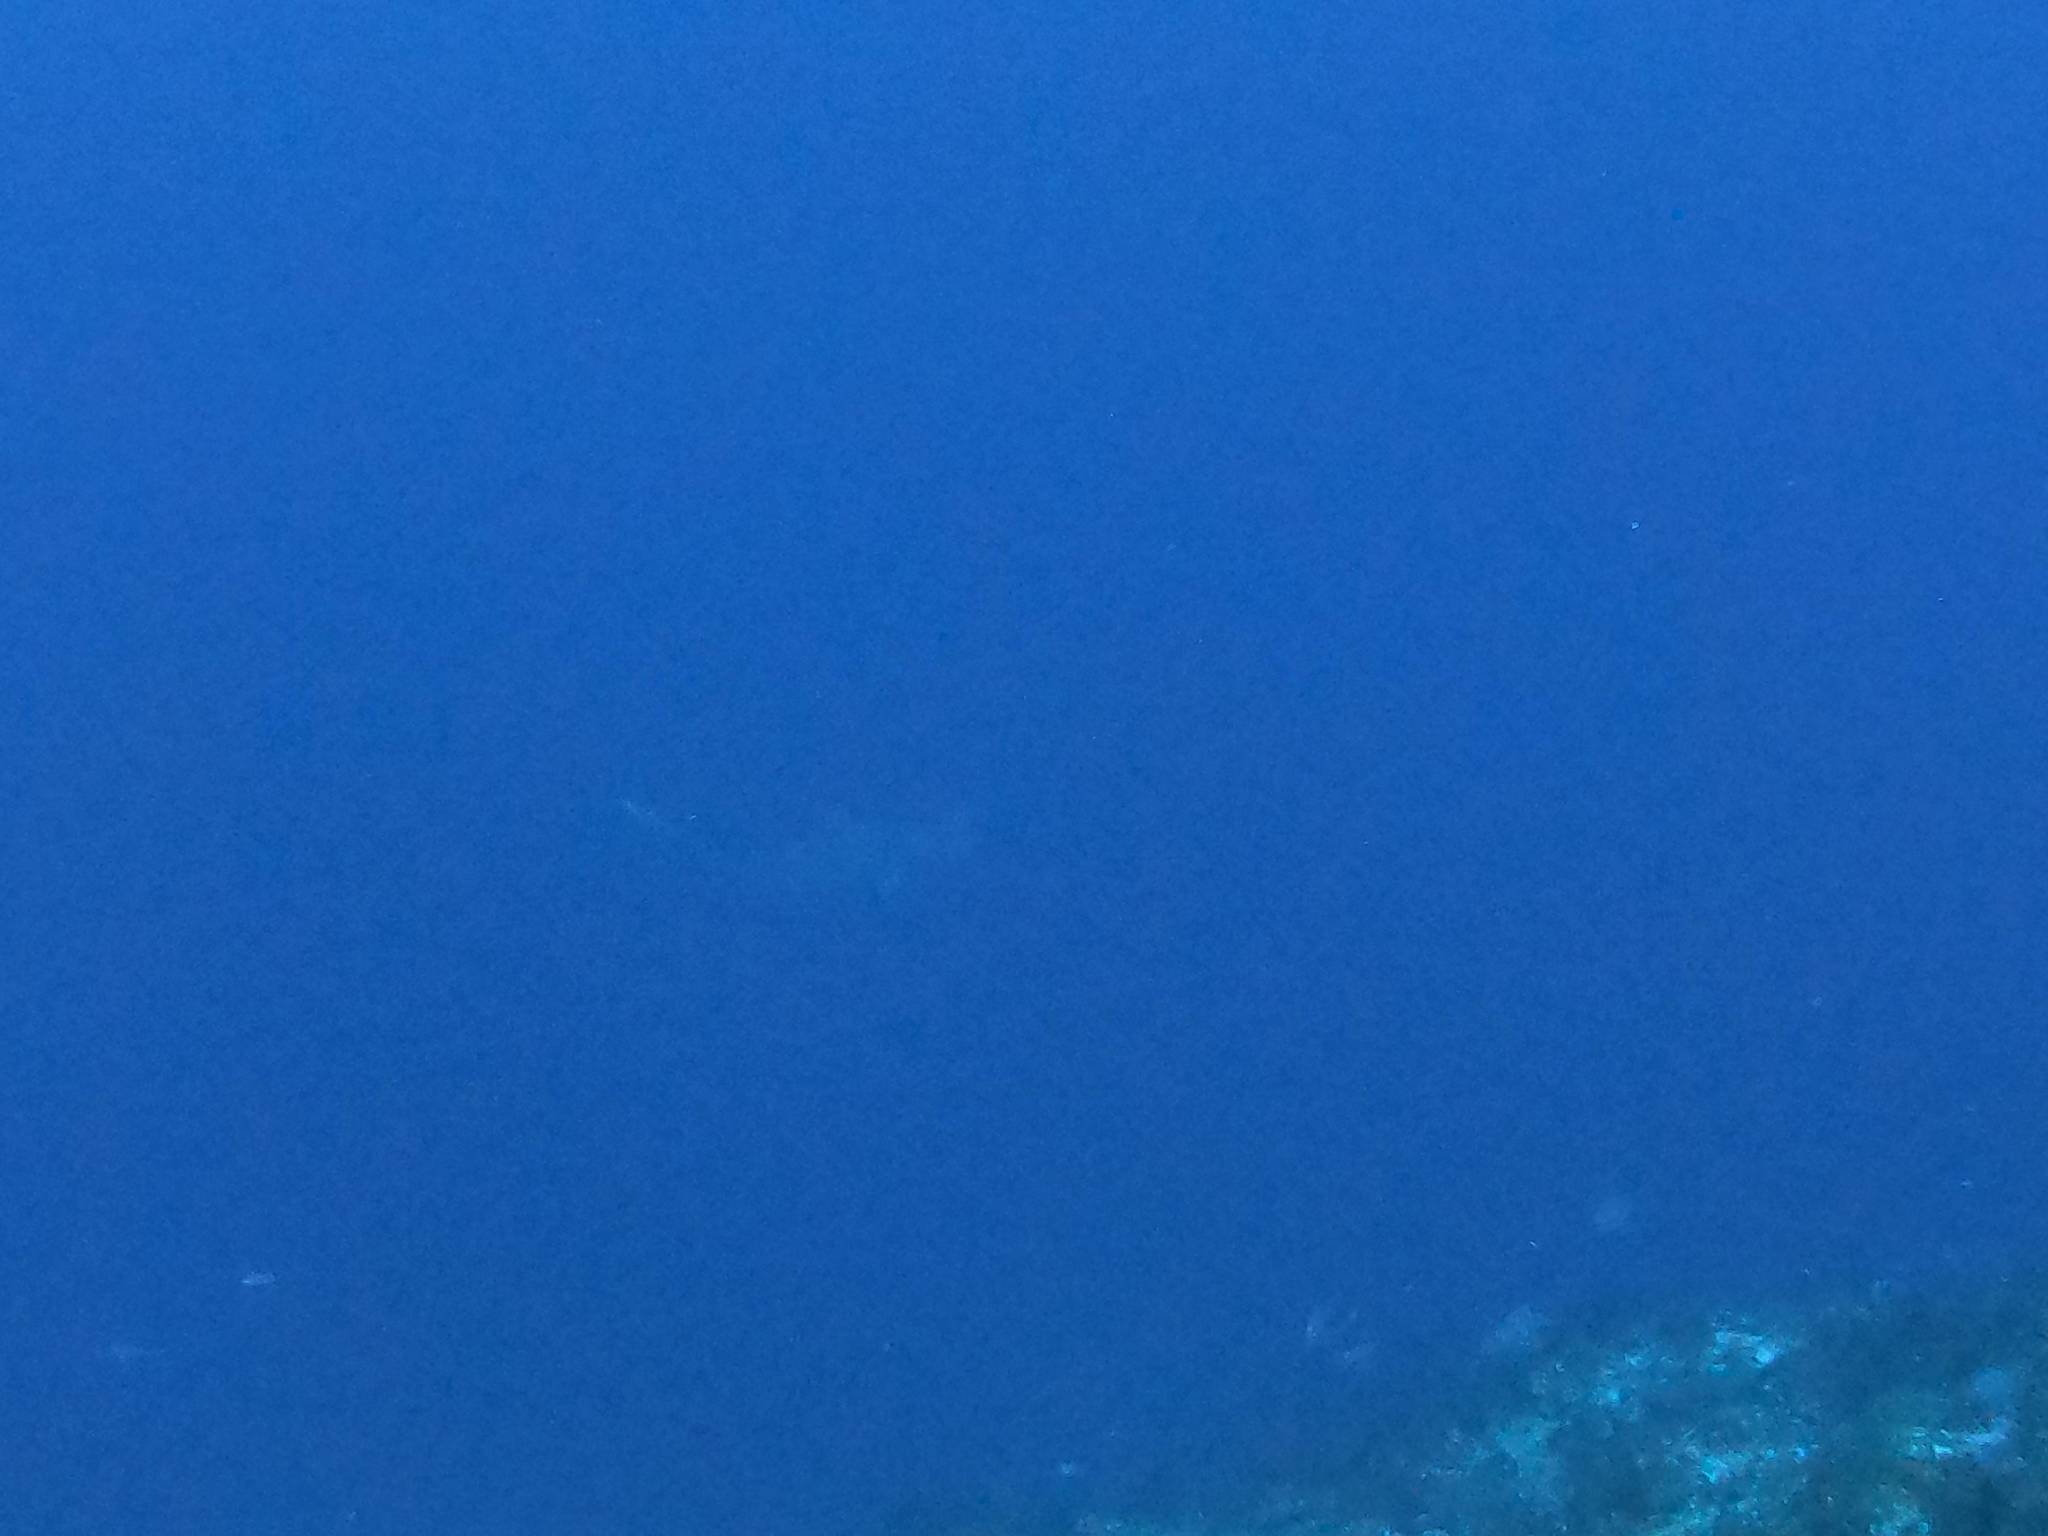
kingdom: Animalia
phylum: Chordata
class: Elasmobranchii
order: Carcharhiniformes
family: Sphyrnidae
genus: Sphyrna
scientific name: Sphyrna mokarran
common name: Great hammerhead
